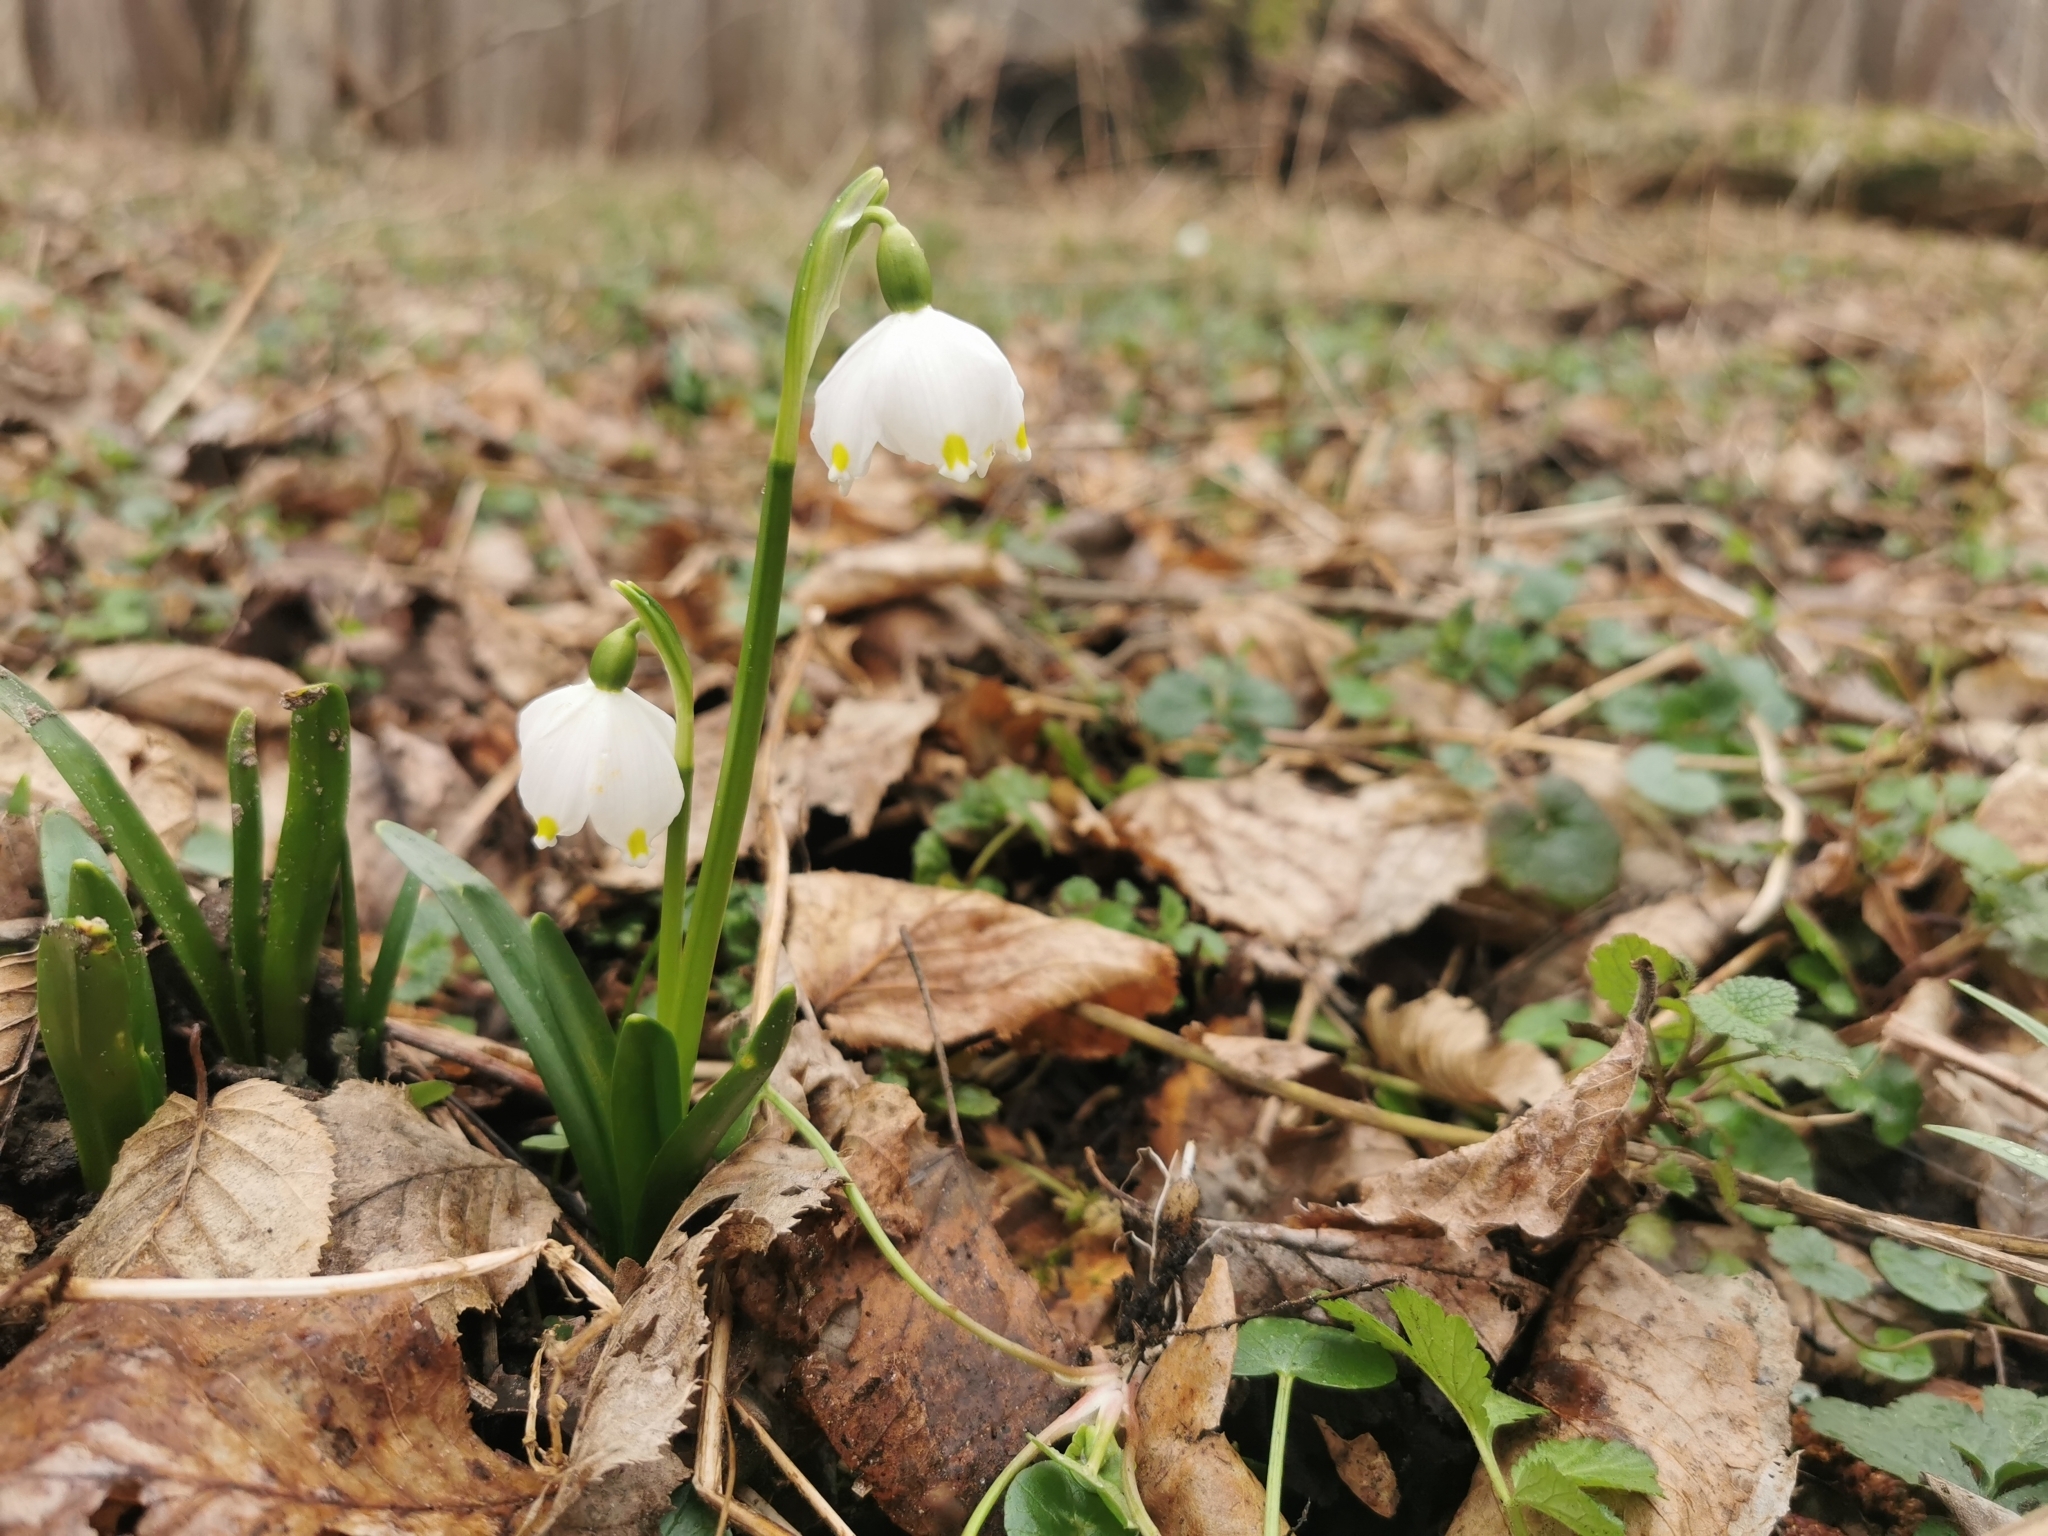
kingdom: Plantae
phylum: Tracheophyta
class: Liliopsida
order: Asparagales
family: Amaryllidaceae
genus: Leucojum
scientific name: Leucojum vernum
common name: Spring snowflake
